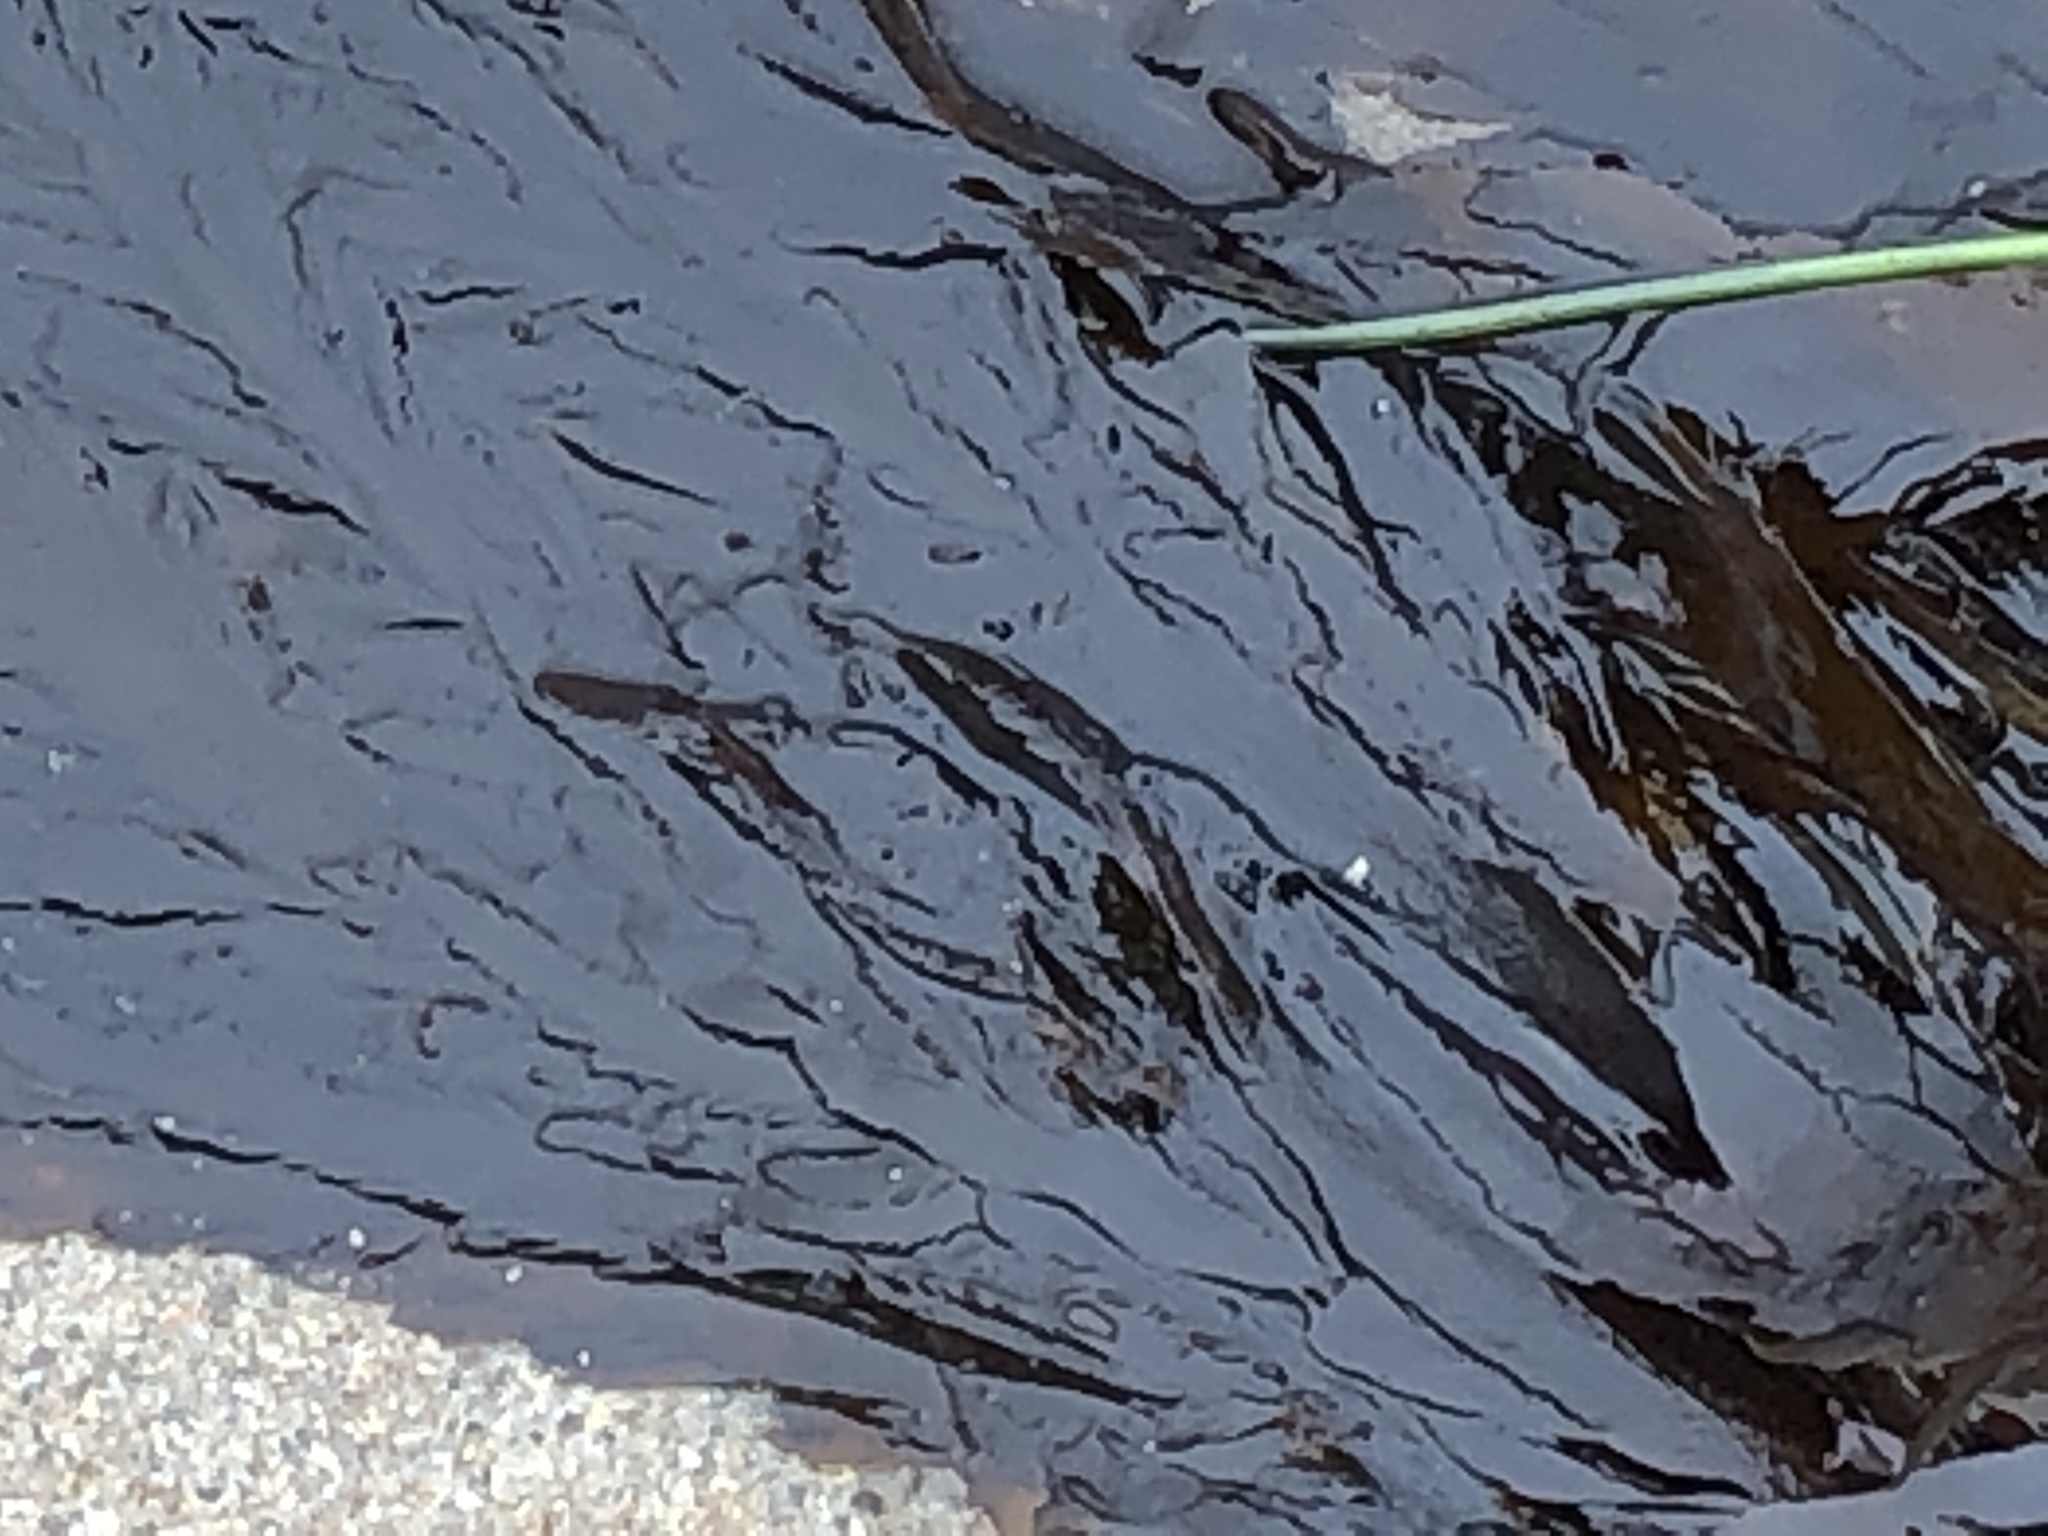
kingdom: Chromista
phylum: Ochrophyta
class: Phaeophyceae
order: Desmarestiales
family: Desmarestiaceae
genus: Desmarestia
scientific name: Desmarestia ligulata
